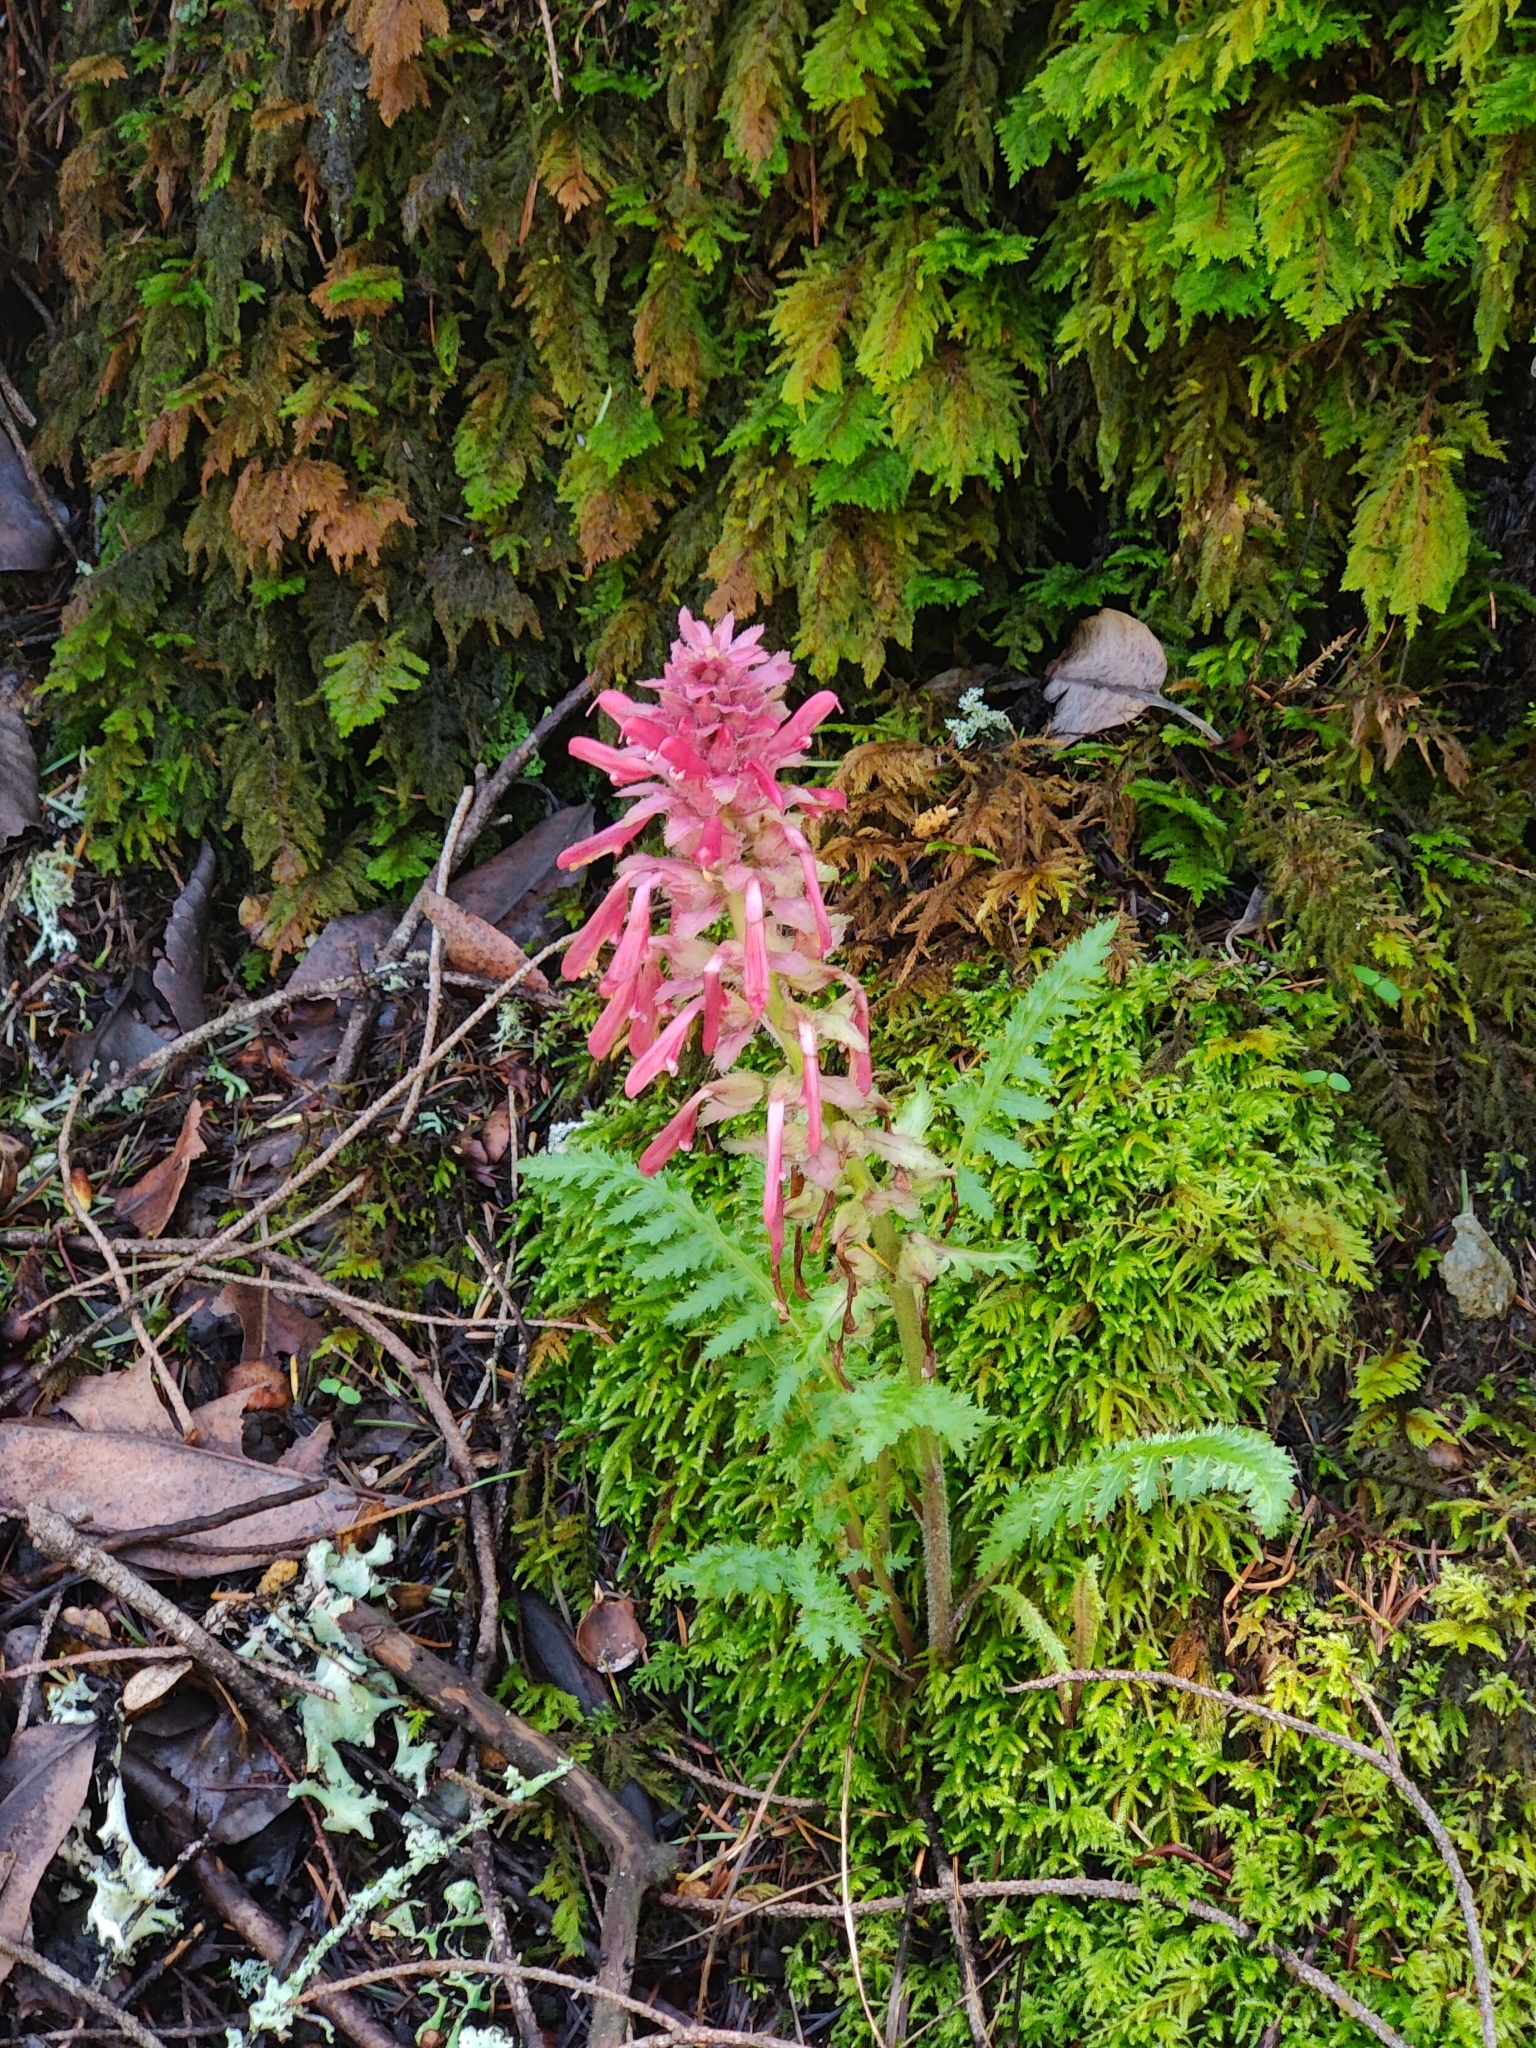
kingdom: Plantae
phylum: Tracheophyta
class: Magnoliopsida
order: Lamiales
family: Orobanchaceae
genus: Pedicularis
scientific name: Pedicularis densiflora
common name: Indian warrior
